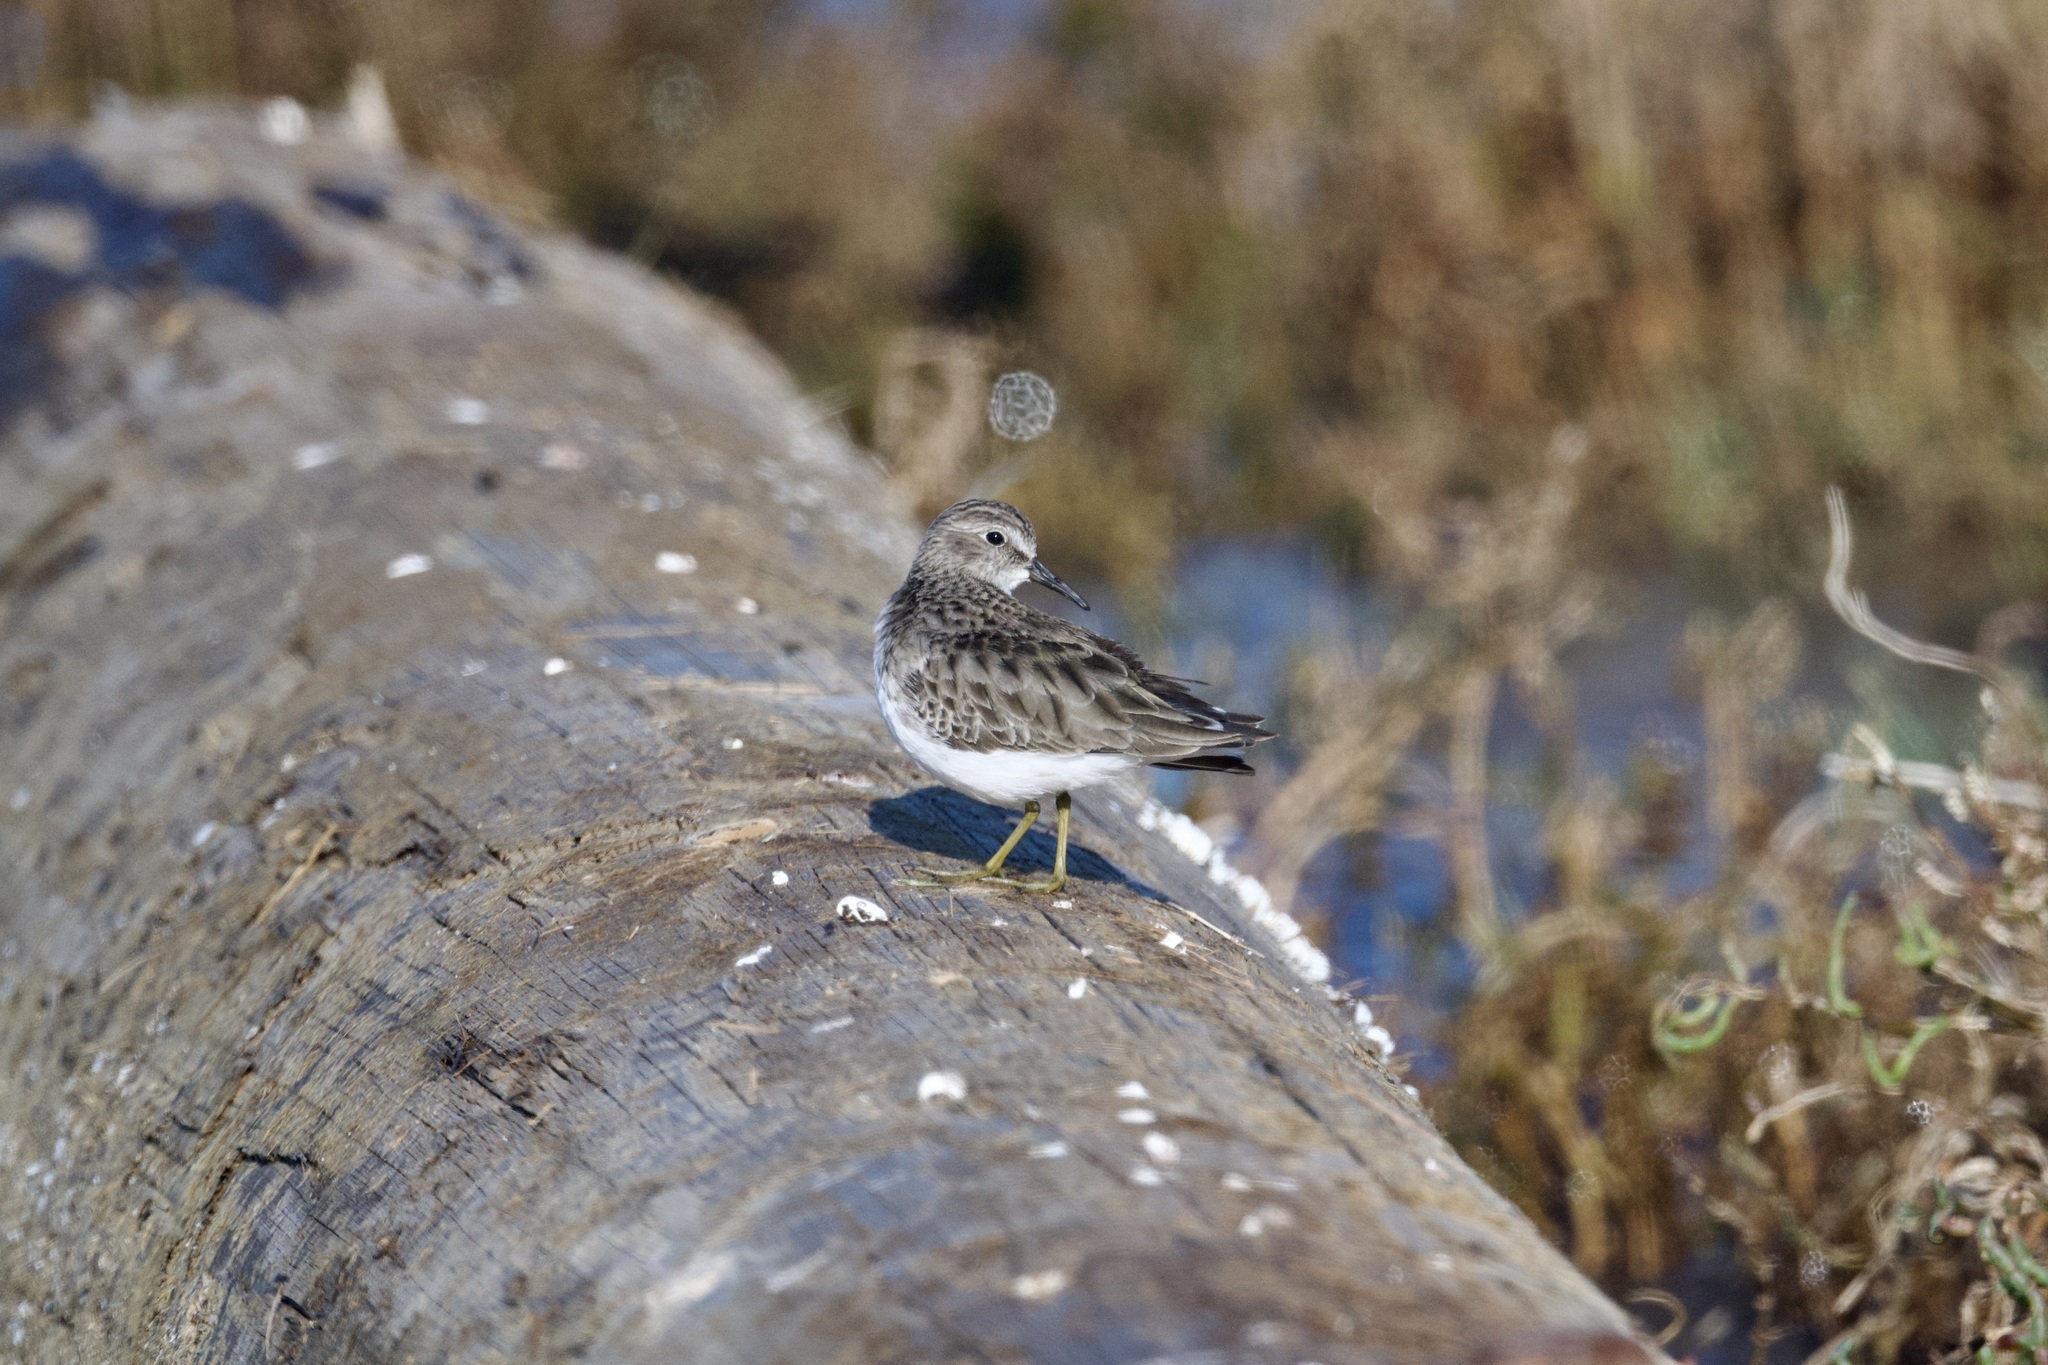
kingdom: Animalia
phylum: Chordata
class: Aves
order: Charadriiformes
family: Scolopacidae
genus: Calidris
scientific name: Calidris minutilla
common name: Least sandpiper
